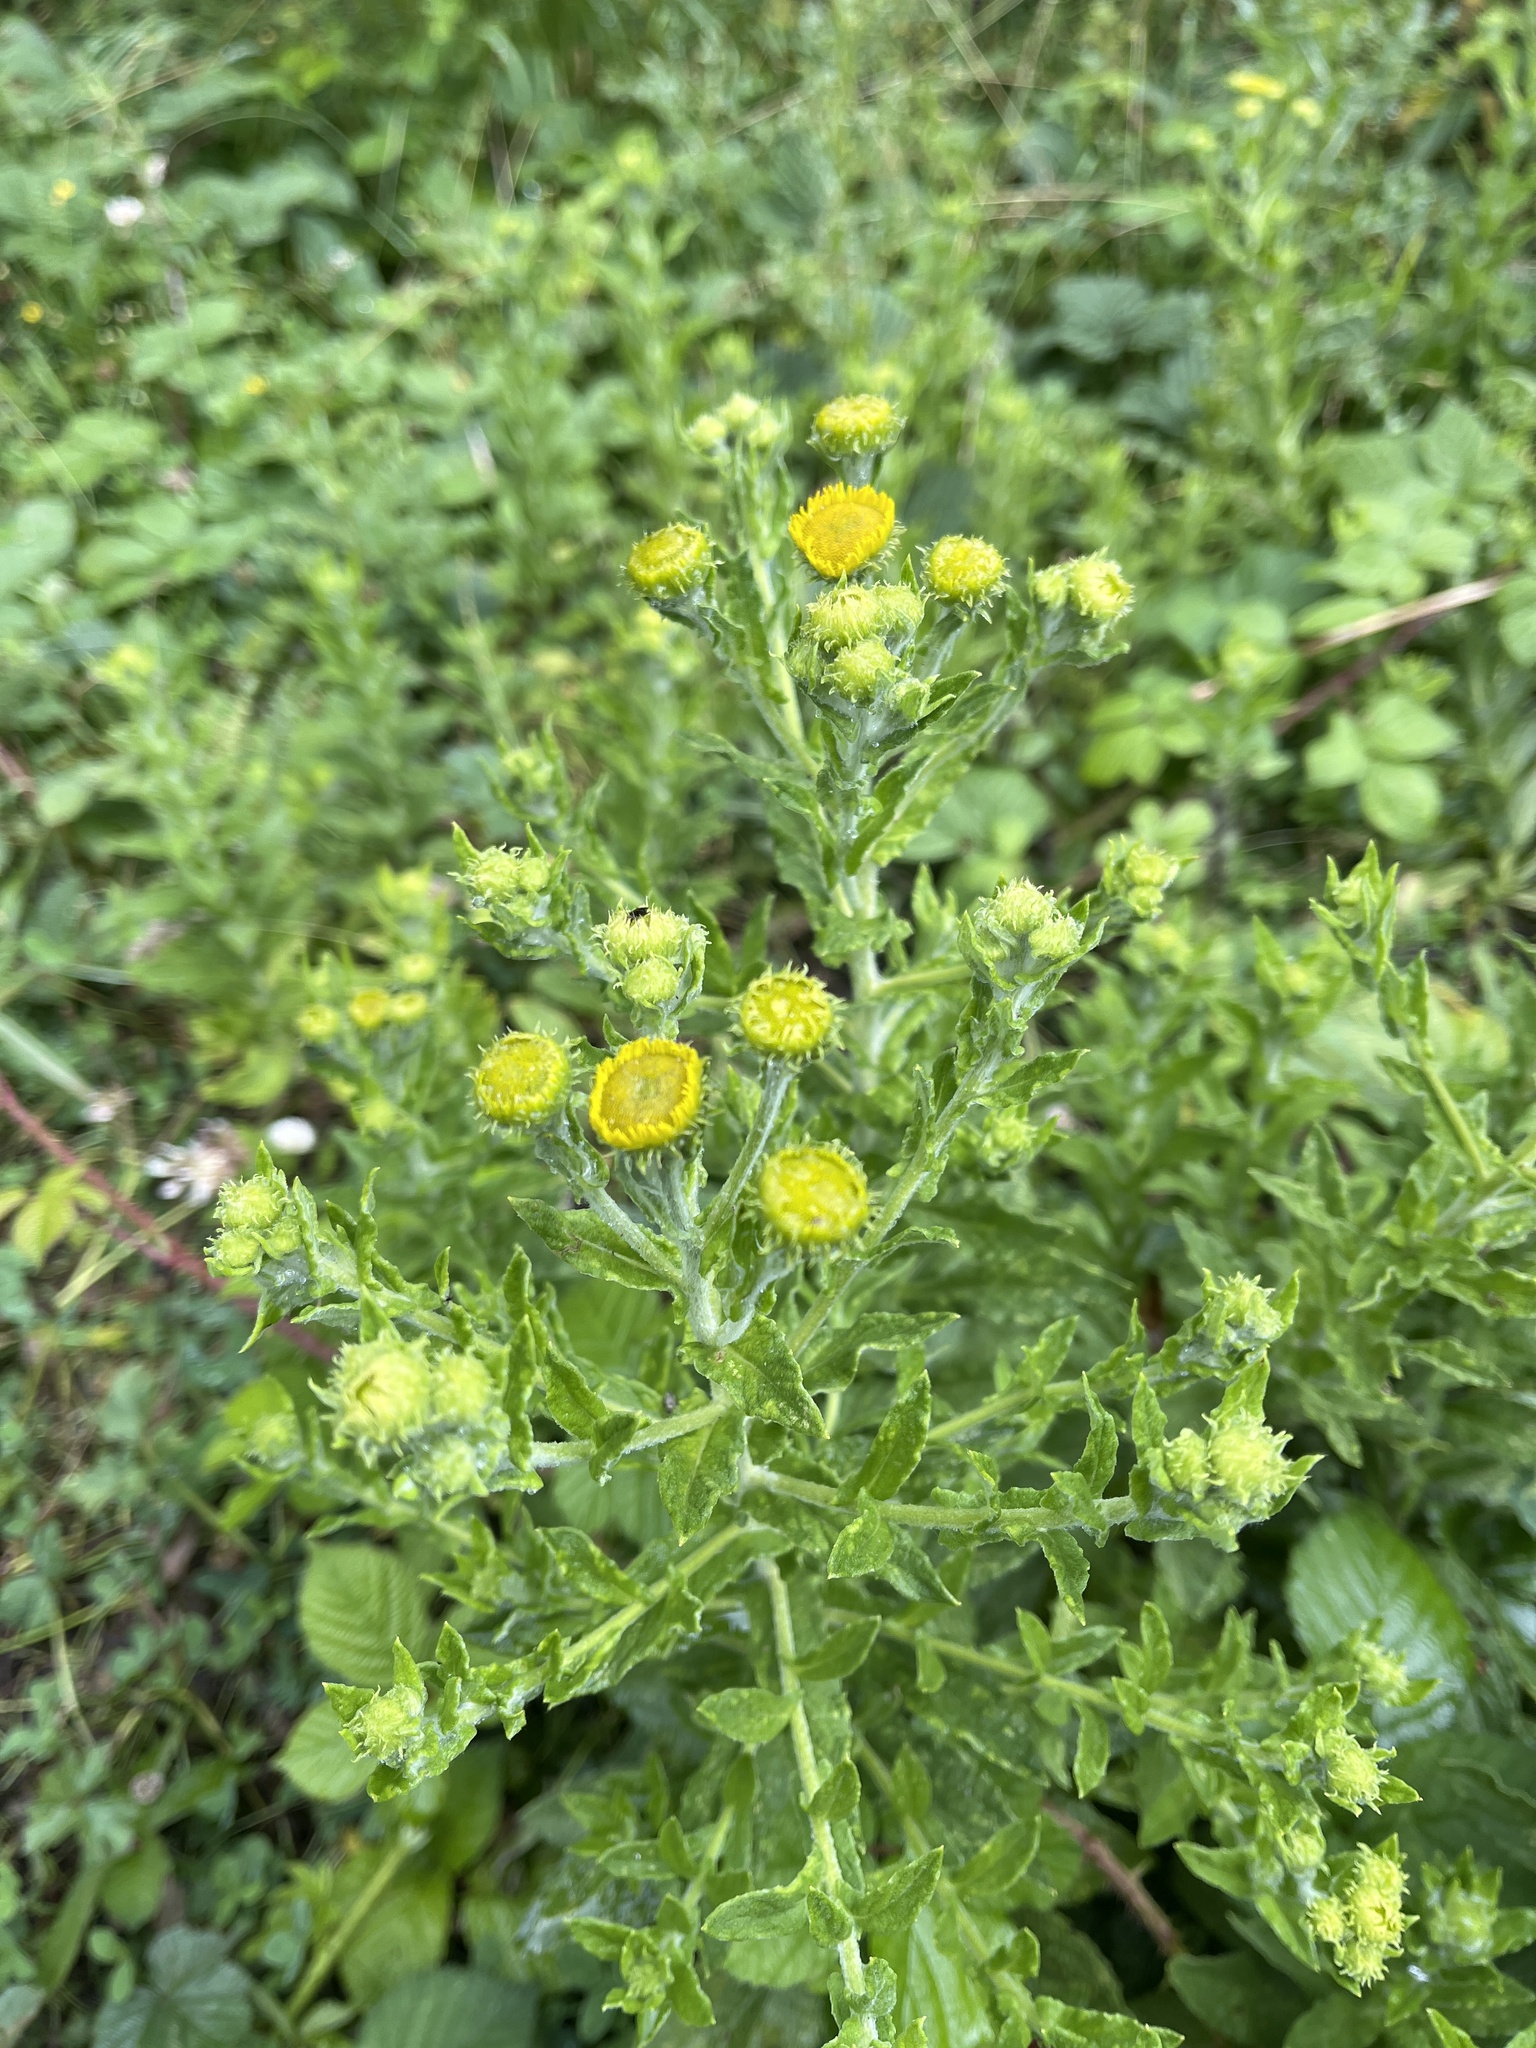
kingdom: Plantae
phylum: Tracheophyta
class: Magnoliopsida
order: Asterales
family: Asteraceae
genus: Pulicaria
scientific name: Pulicaria dysenterica
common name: Common fleabane
